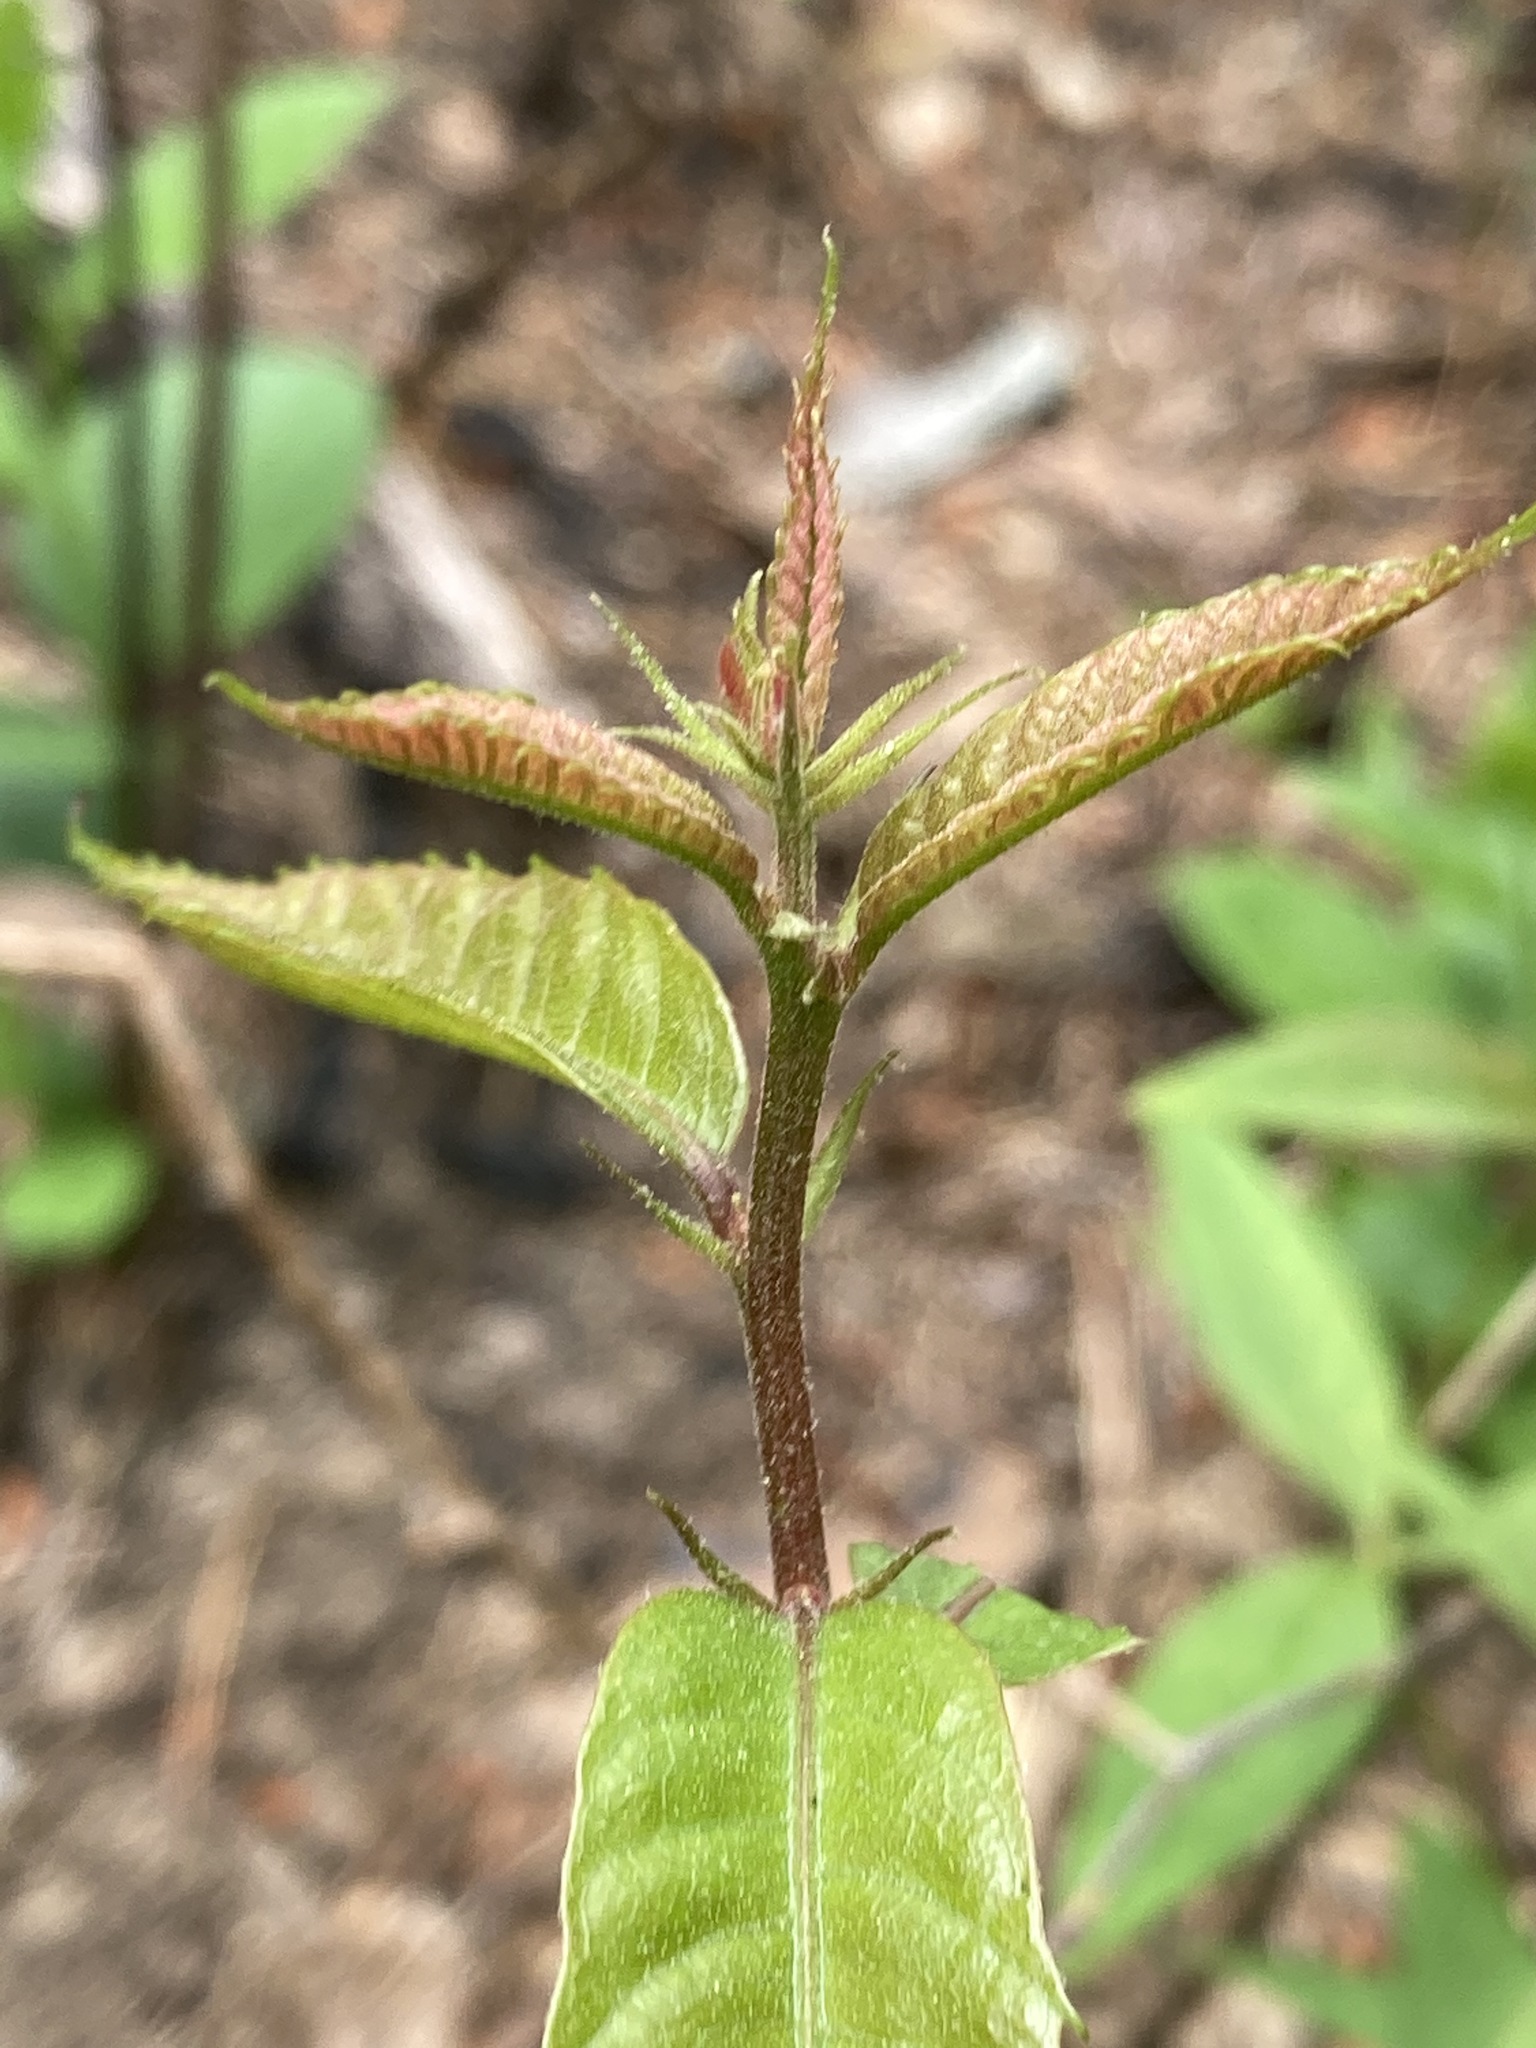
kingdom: Plantae
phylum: Tracheophyta
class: Magnoliopsida
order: Fagales
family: Fagaceae
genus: Castanea
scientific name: Castanea dentata
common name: American chestnut
